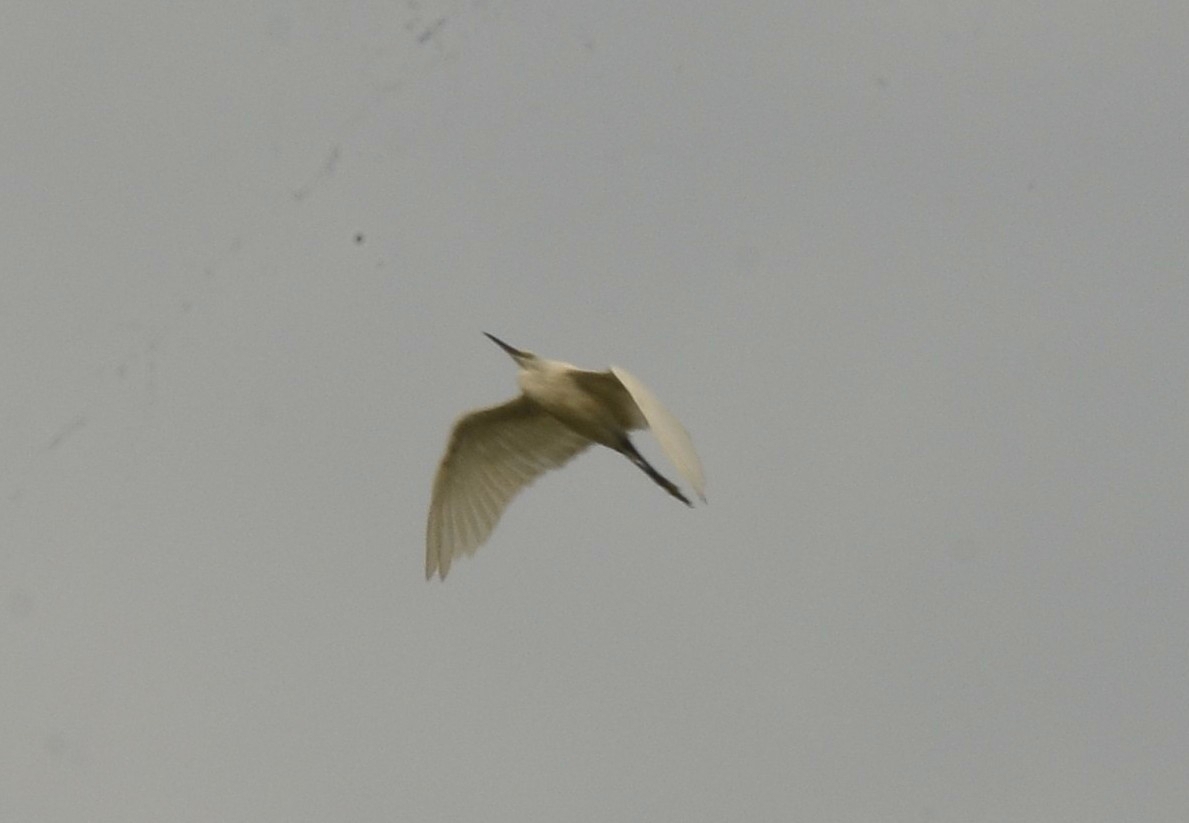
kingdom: Animalia
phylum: Chordata
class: Aves
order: Pelecaniformes
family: Ardeidae
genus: Egretta
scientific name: Egretta garzetta
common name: Little egret
